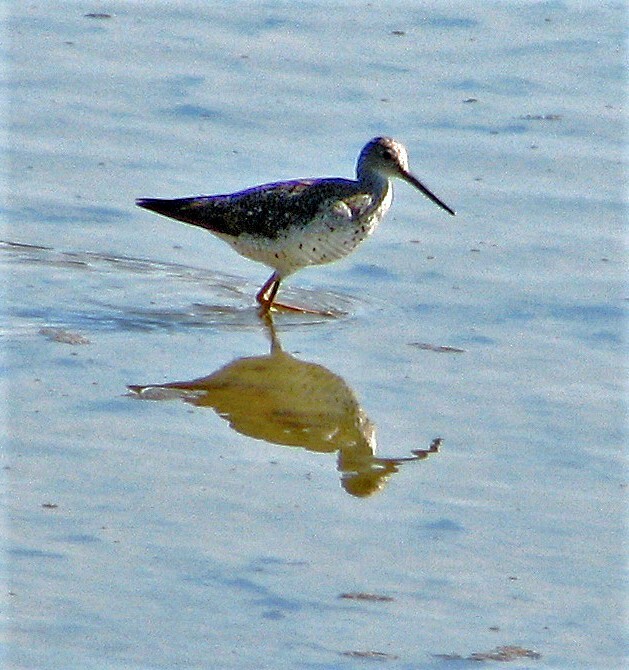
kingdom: Animalia
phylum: Chordata
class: Aves
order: Charadriiformes
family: Scolopacidae
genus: Tringa
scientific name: Tringa melanoleuca
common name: Greater yellowlegs
